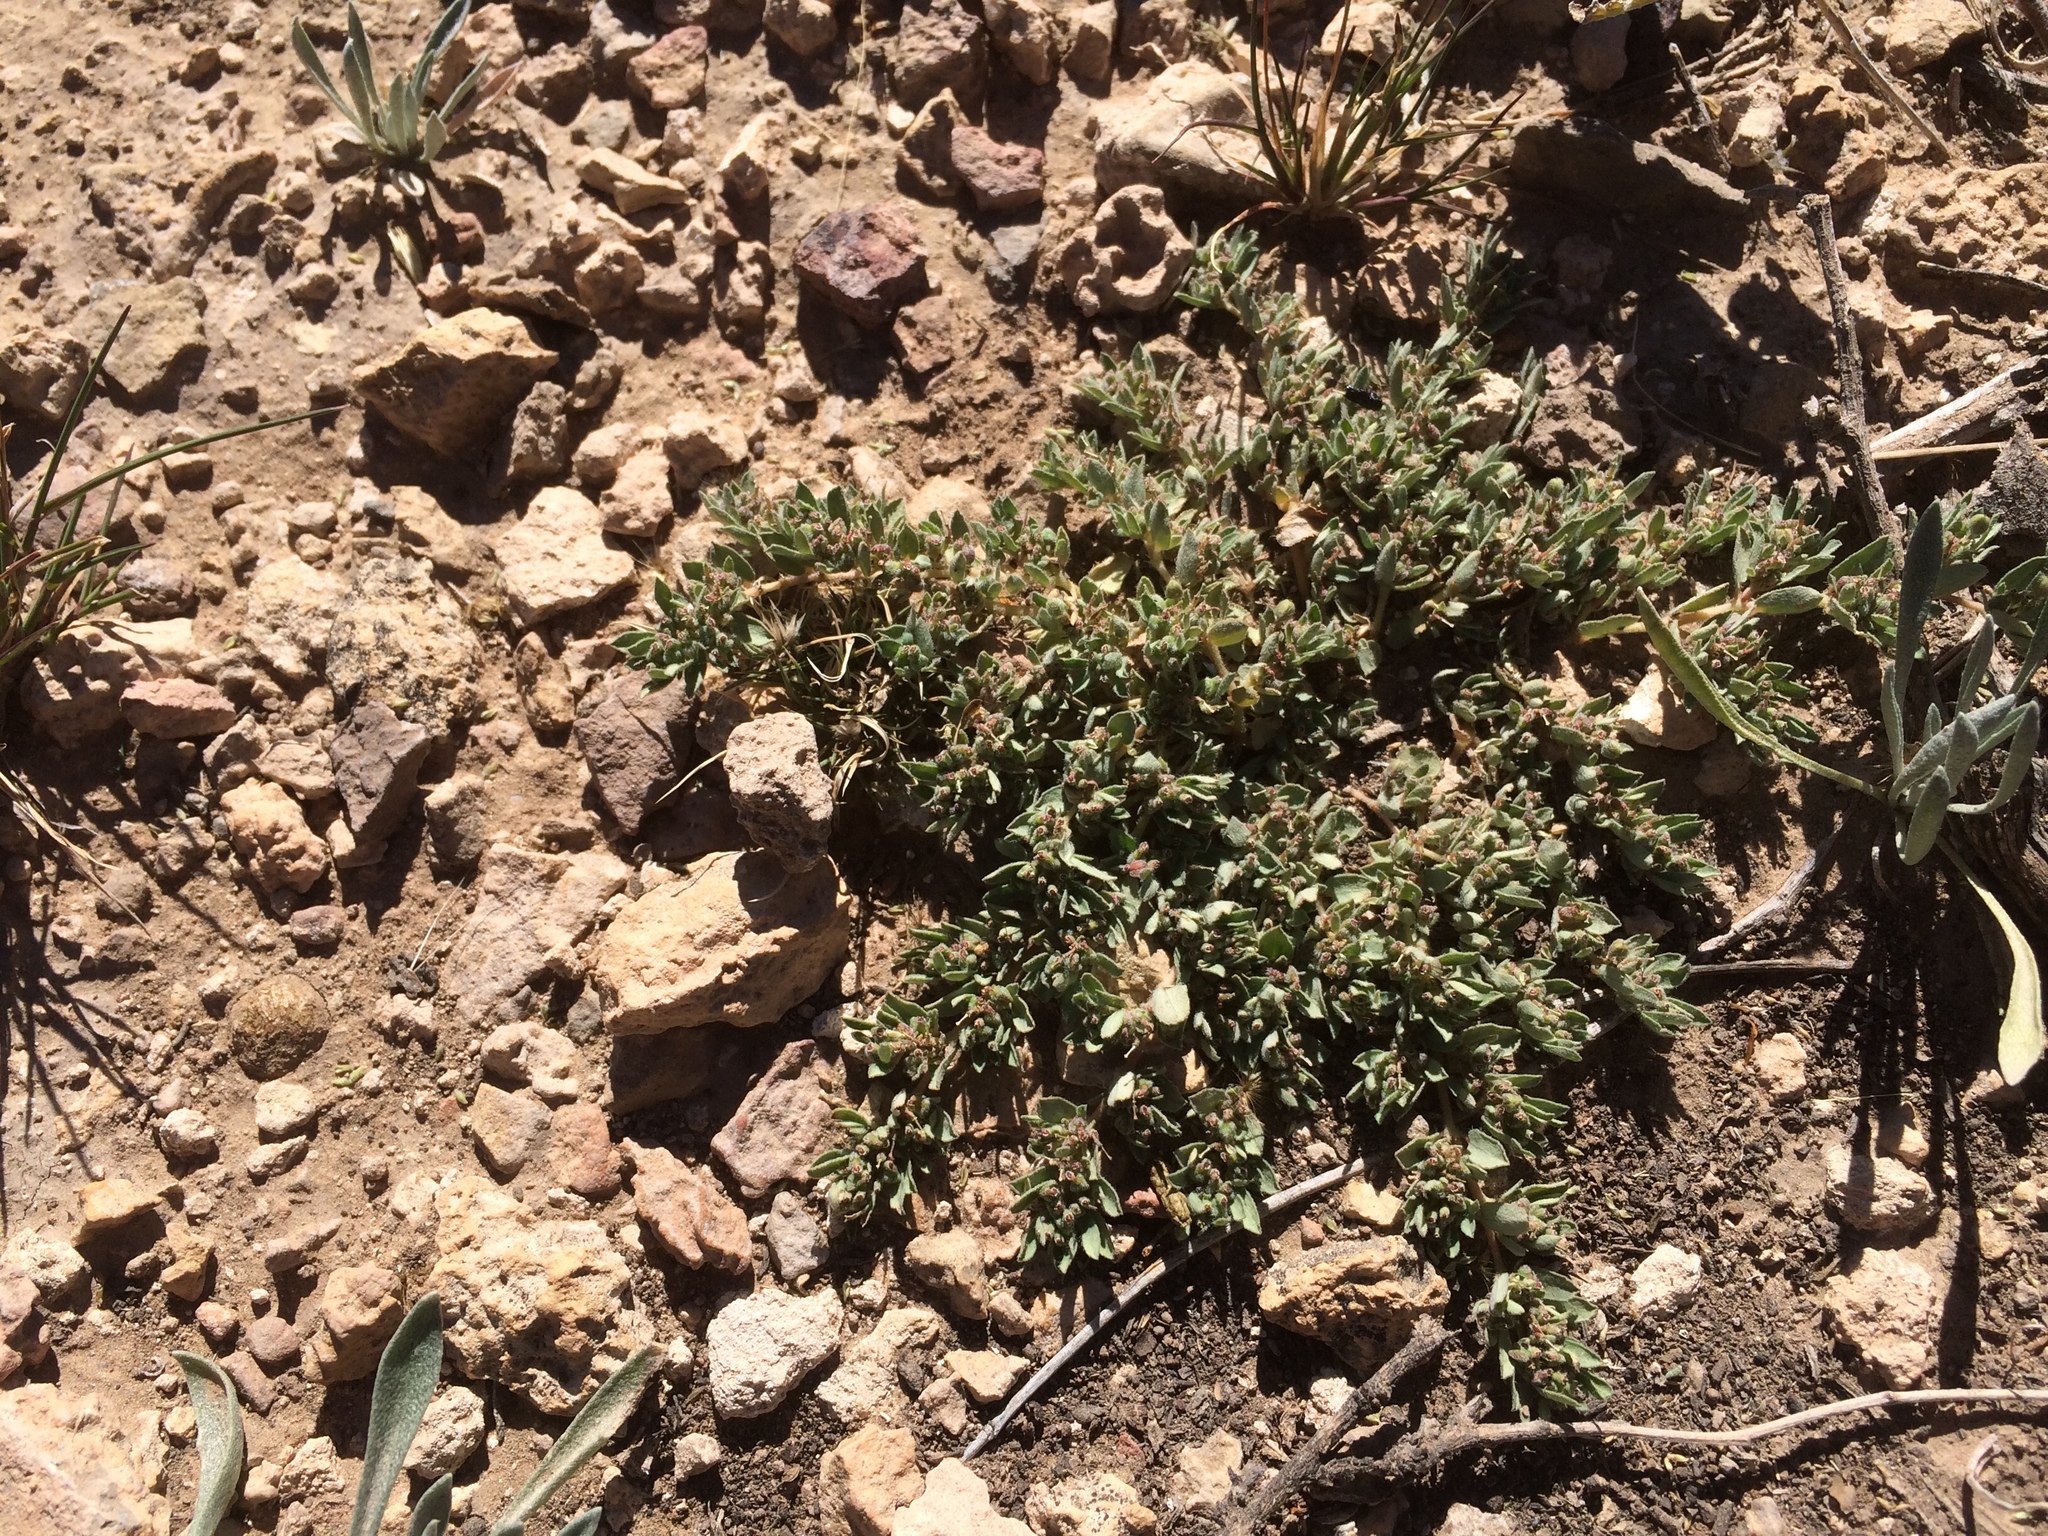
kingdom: Plantae
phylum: Tracheophyta
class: Magnoliopsida
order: Malpighiales
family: Euphorbiaceae
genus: Euphorbia
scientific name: Euphorbia stictospora
